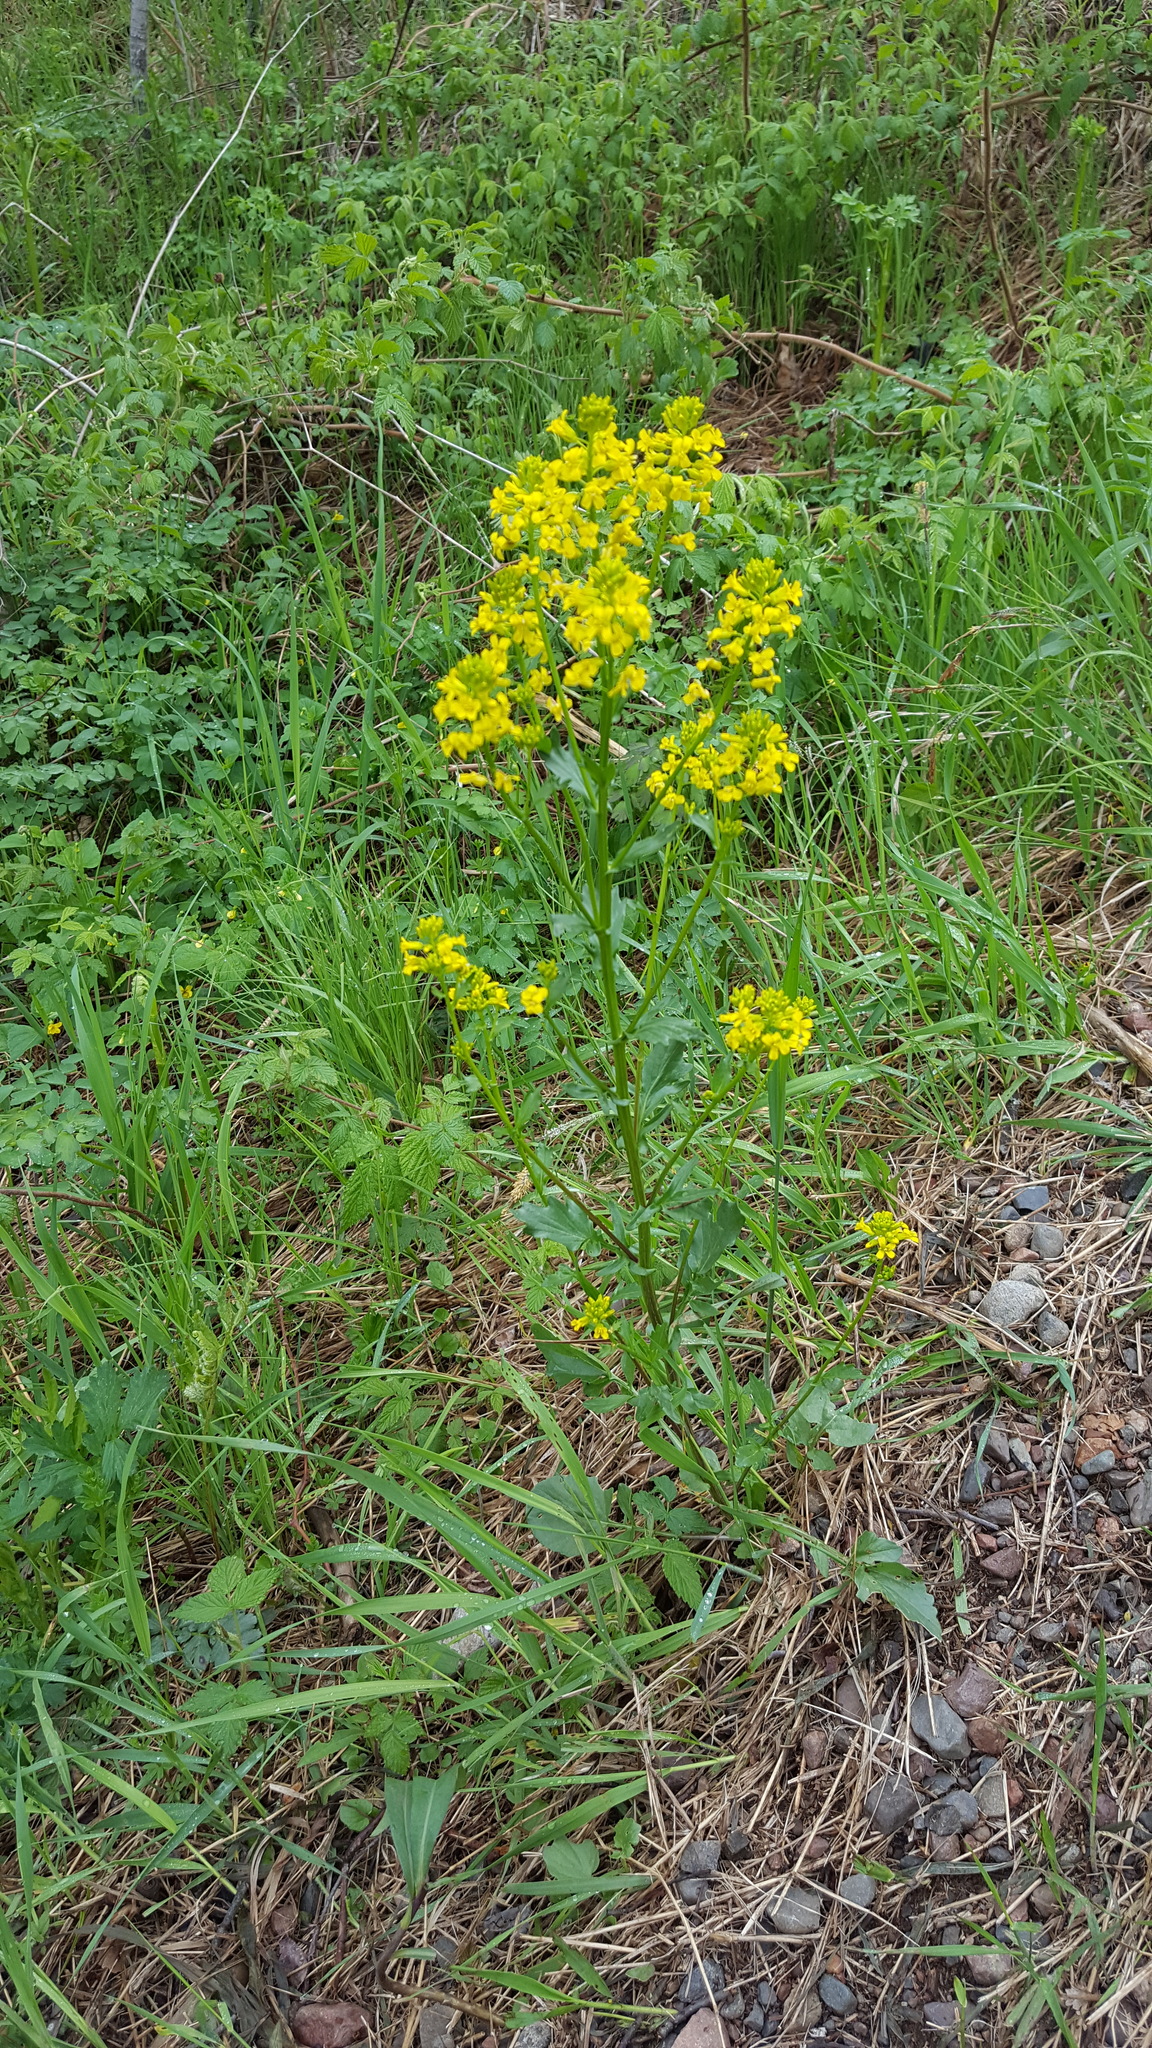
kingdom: Plantae
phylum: Tracheophyta
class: Magnoliopsida
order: Brassicales
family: Brassicaceae
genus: Barbarea
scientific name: Barbarea vulgaris
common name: Cressy-greens
